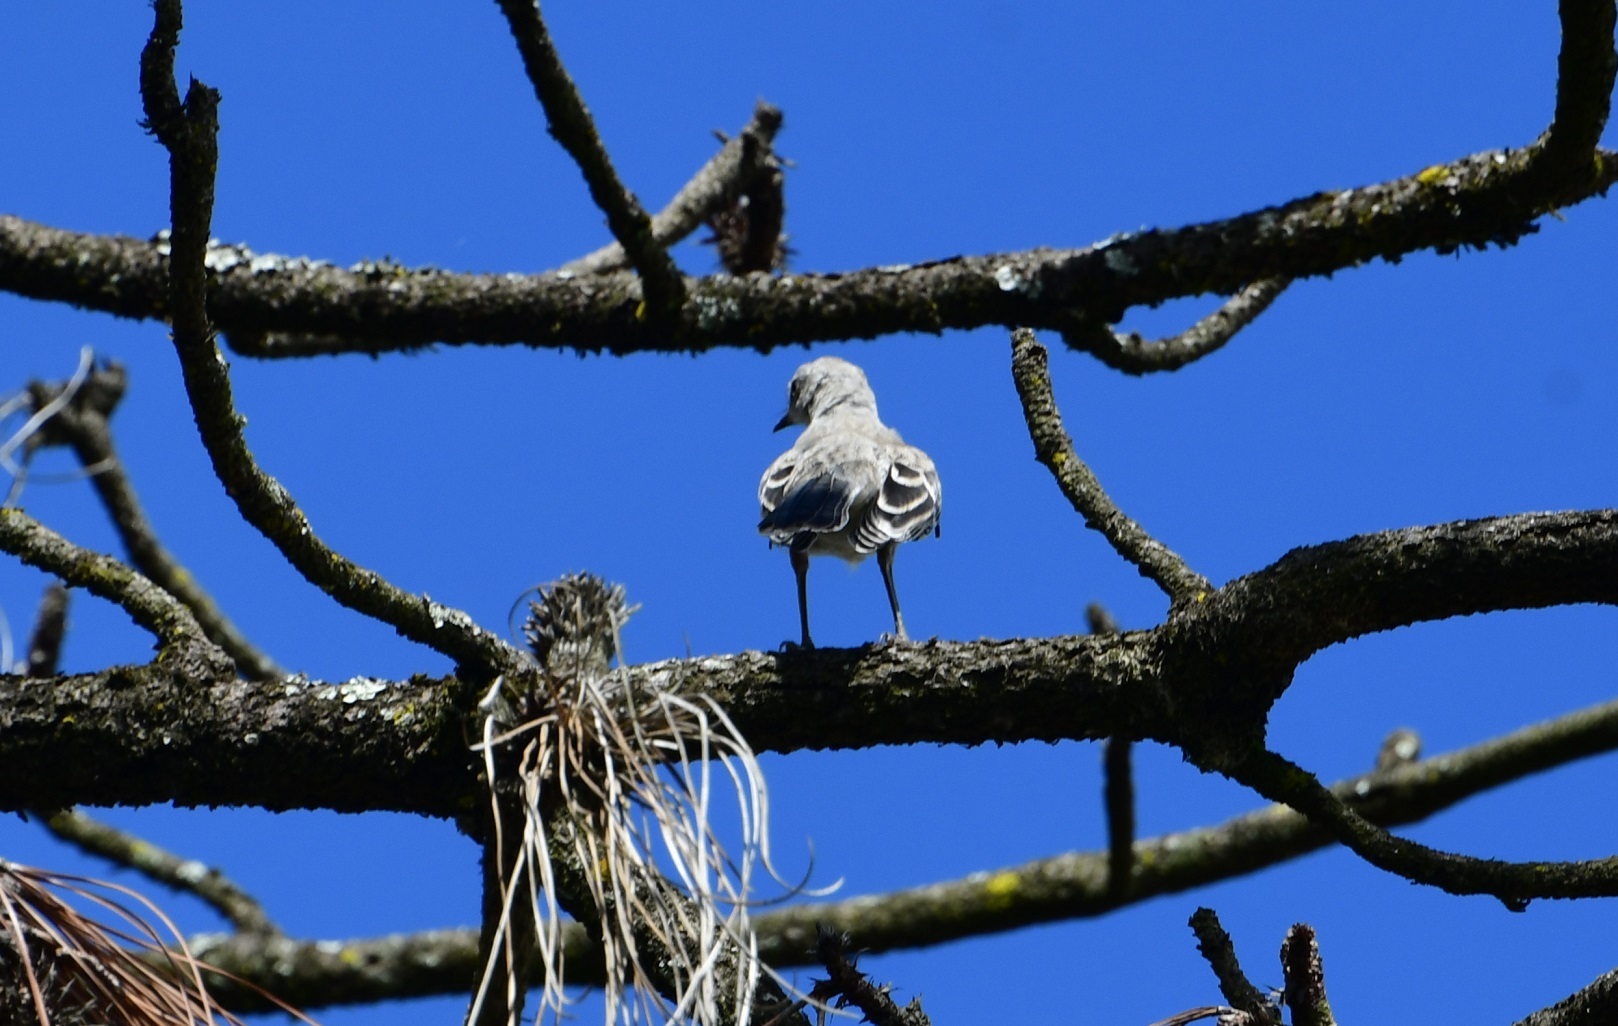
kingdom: Animalia
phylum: Chordata
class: Aves
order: Passeriformes
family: Mimidae
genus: Mimus
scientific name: Mimus gilvus
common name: Tropical mockingbird
